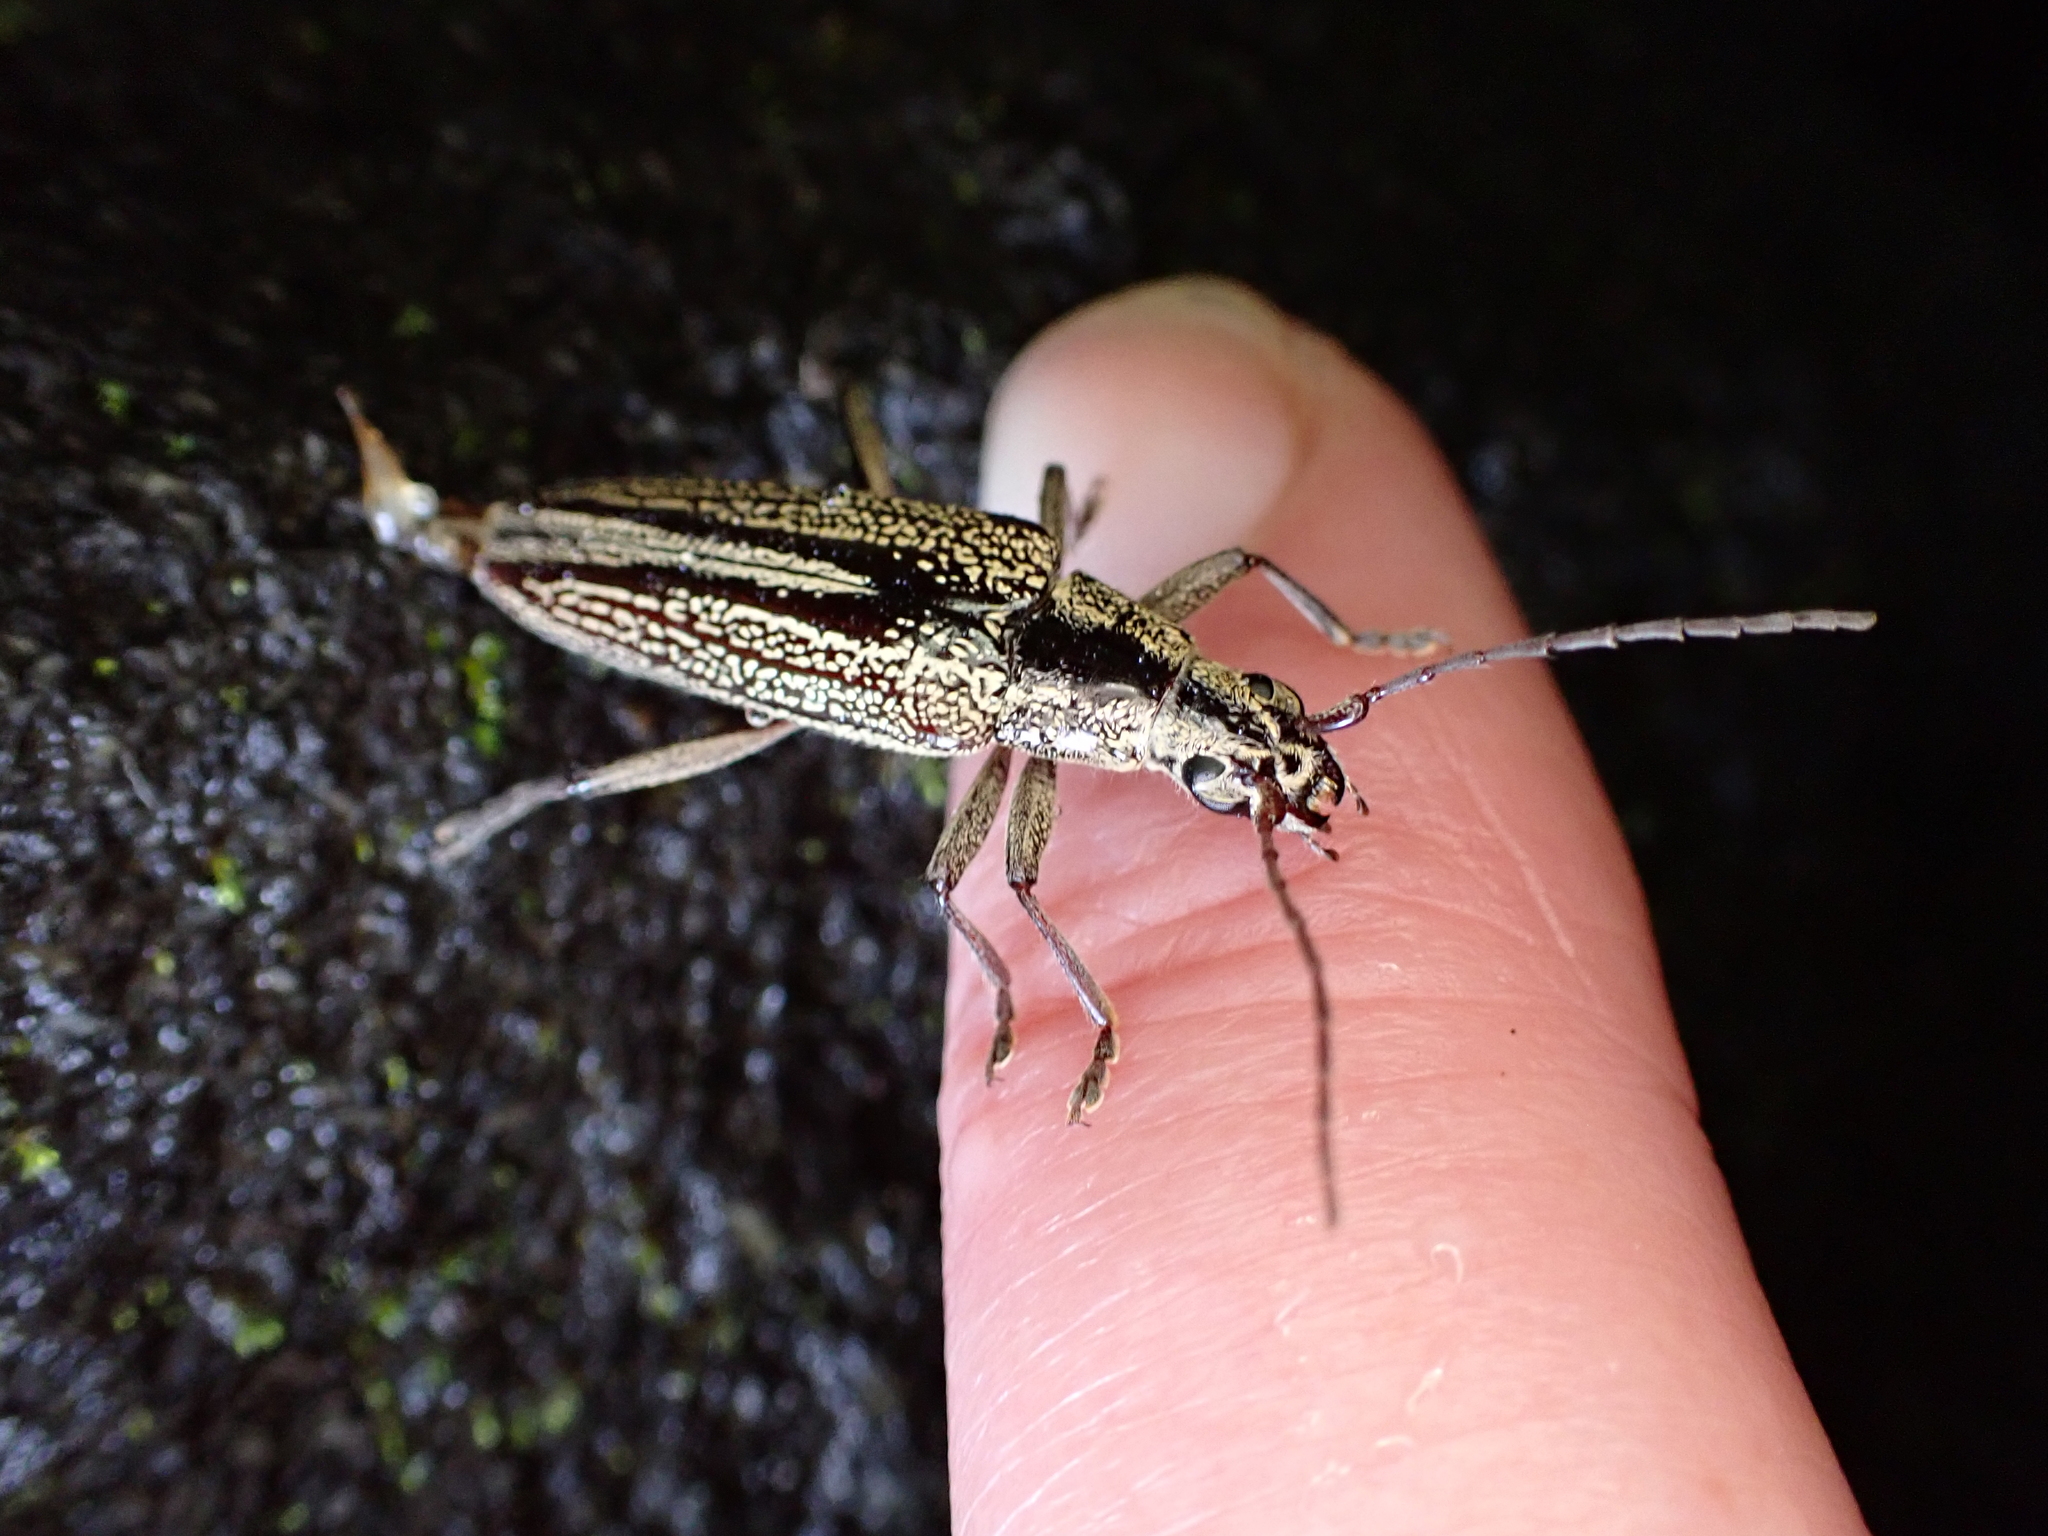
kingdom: Animalia
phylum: Arthropoda
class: Insecta
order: Coleoptera
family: Cerambycidae
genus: Coptomma
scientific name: Coptomma sticticum
